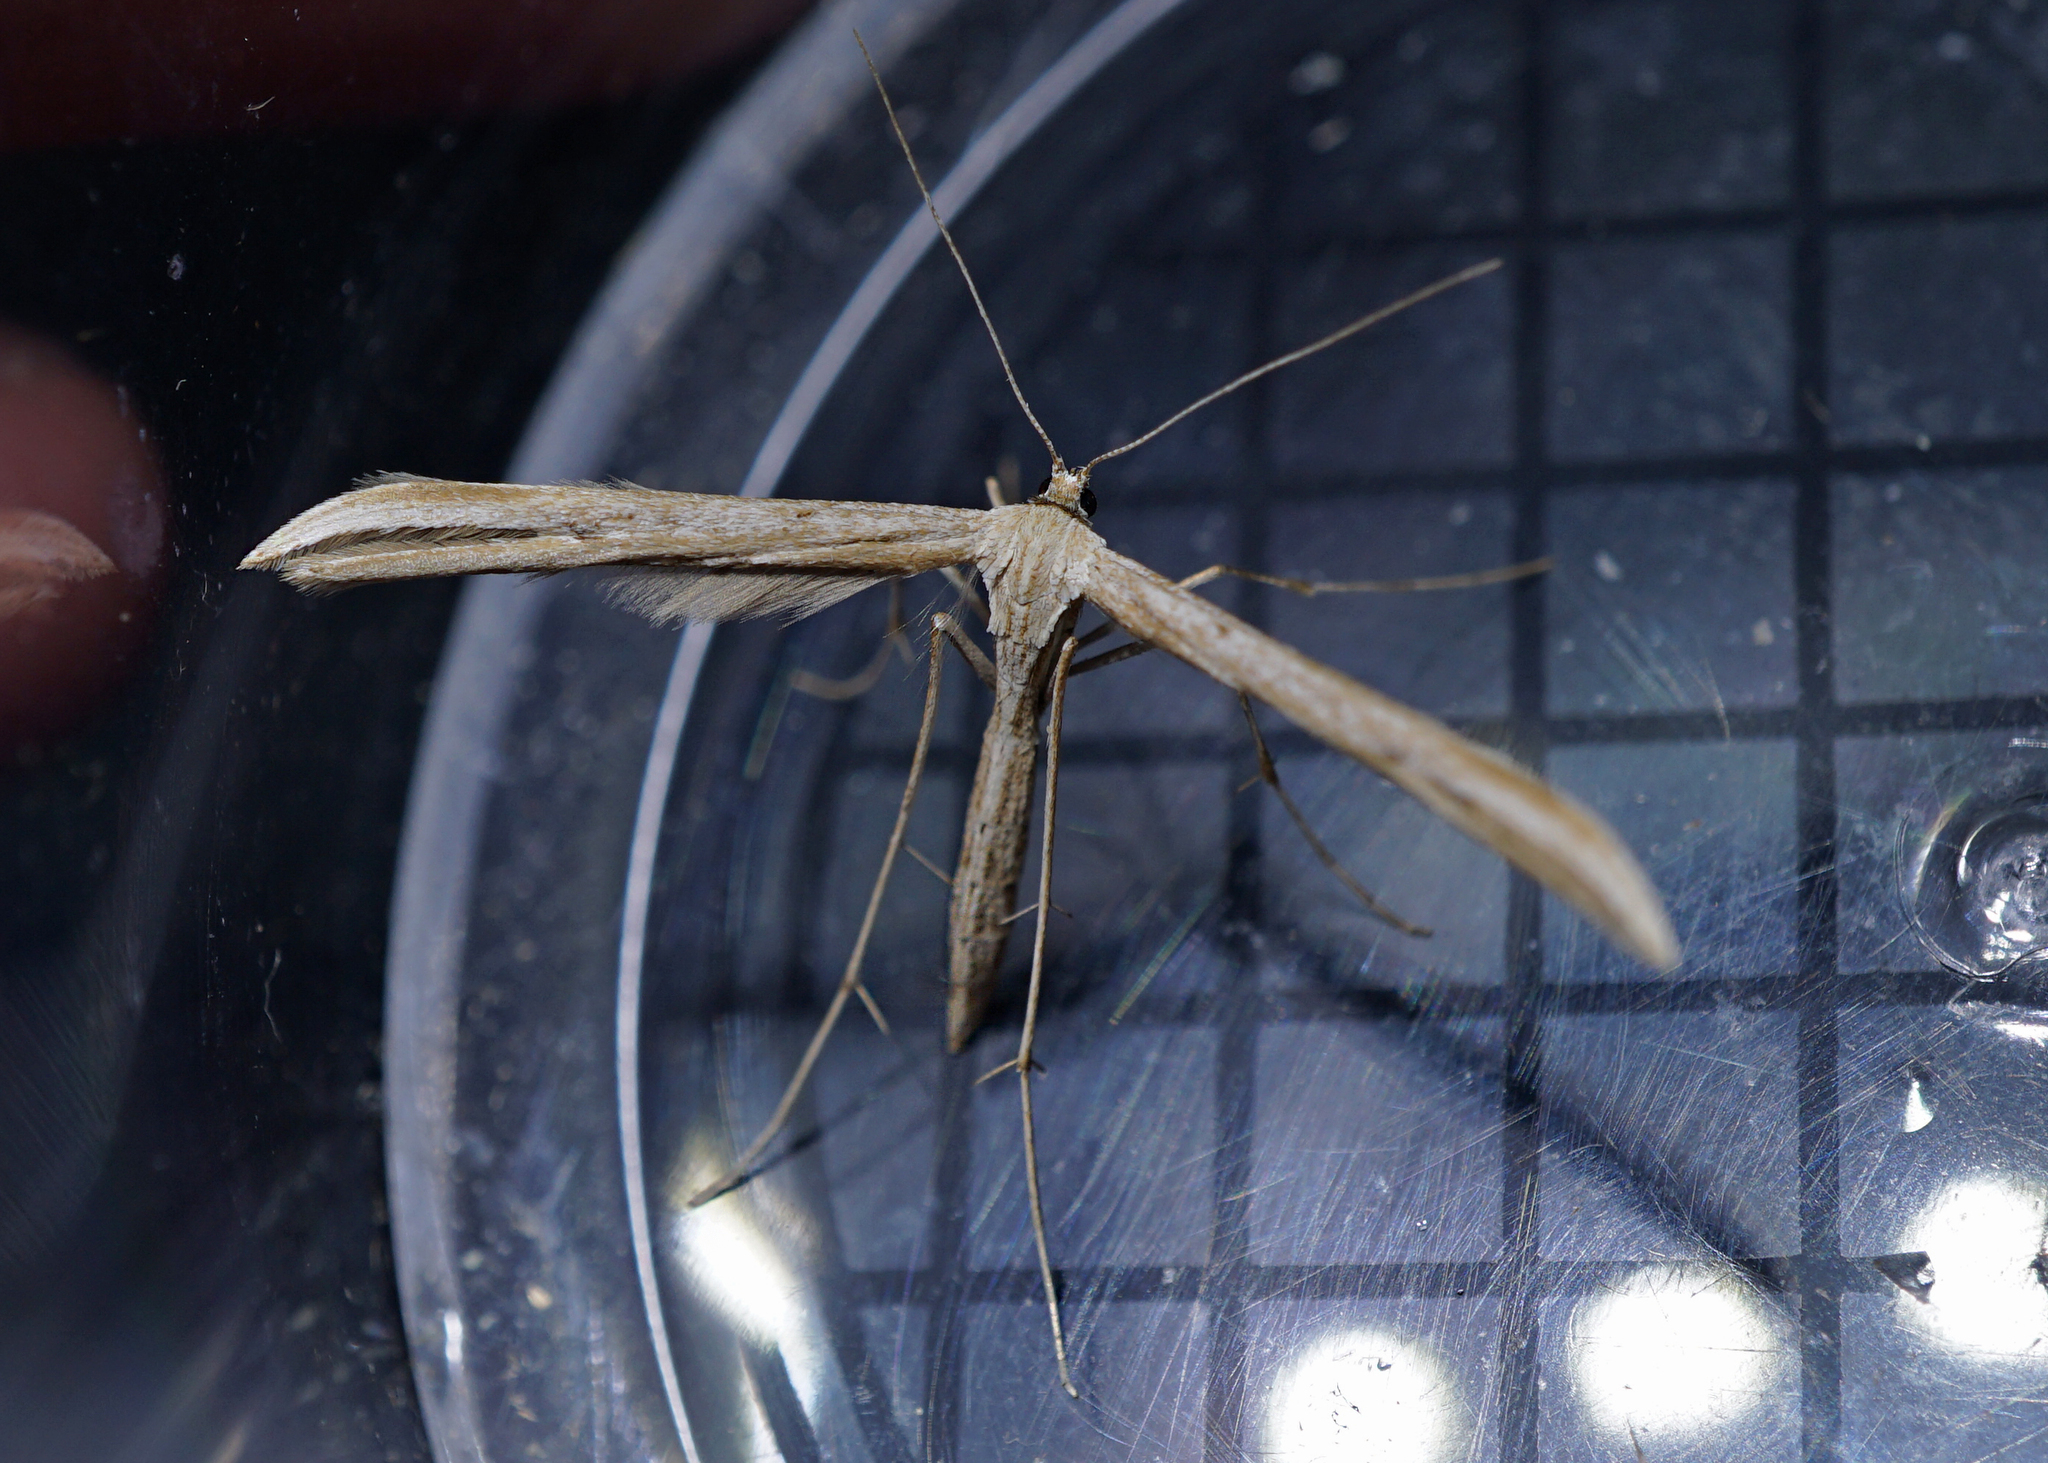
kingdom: Animalia
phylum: Arthropoda
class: Insecta
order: Lepidoptera
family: Pterophoridae
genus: Emmelina
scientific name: Emmelina monodactyla
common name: Common plume
